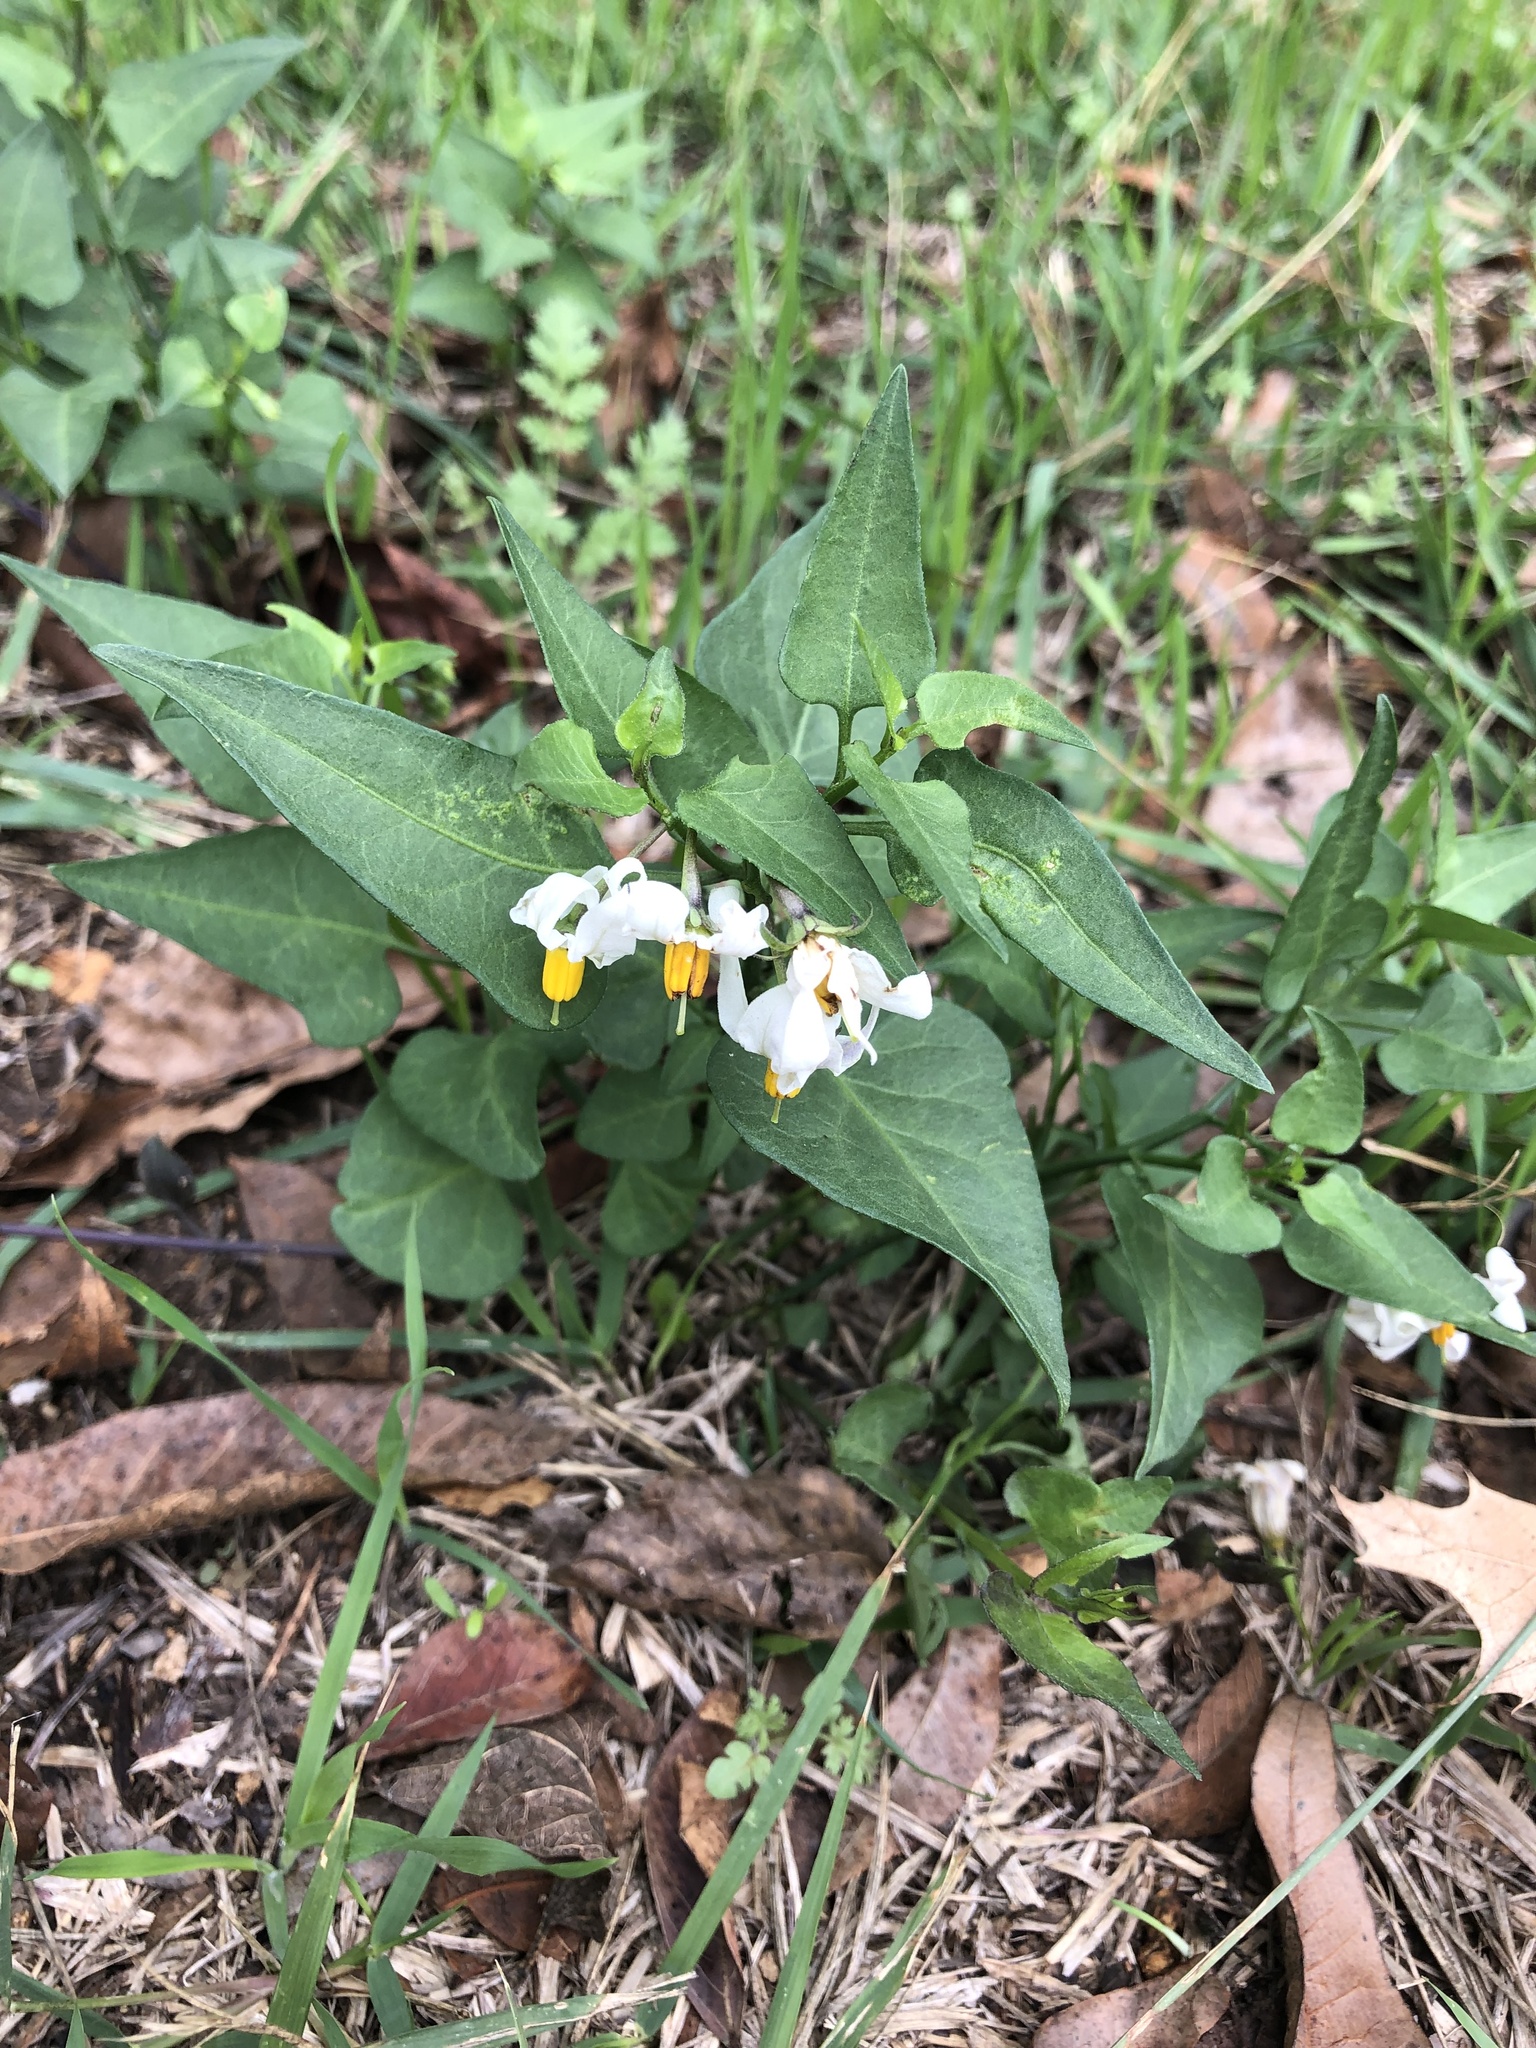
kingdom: Plantae
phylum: Tracheophyta
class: Magnoliopsida
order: Solanales
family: Solanaceae
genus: Solanum
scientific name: Solanum triquetrum
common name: Texas nightshade
